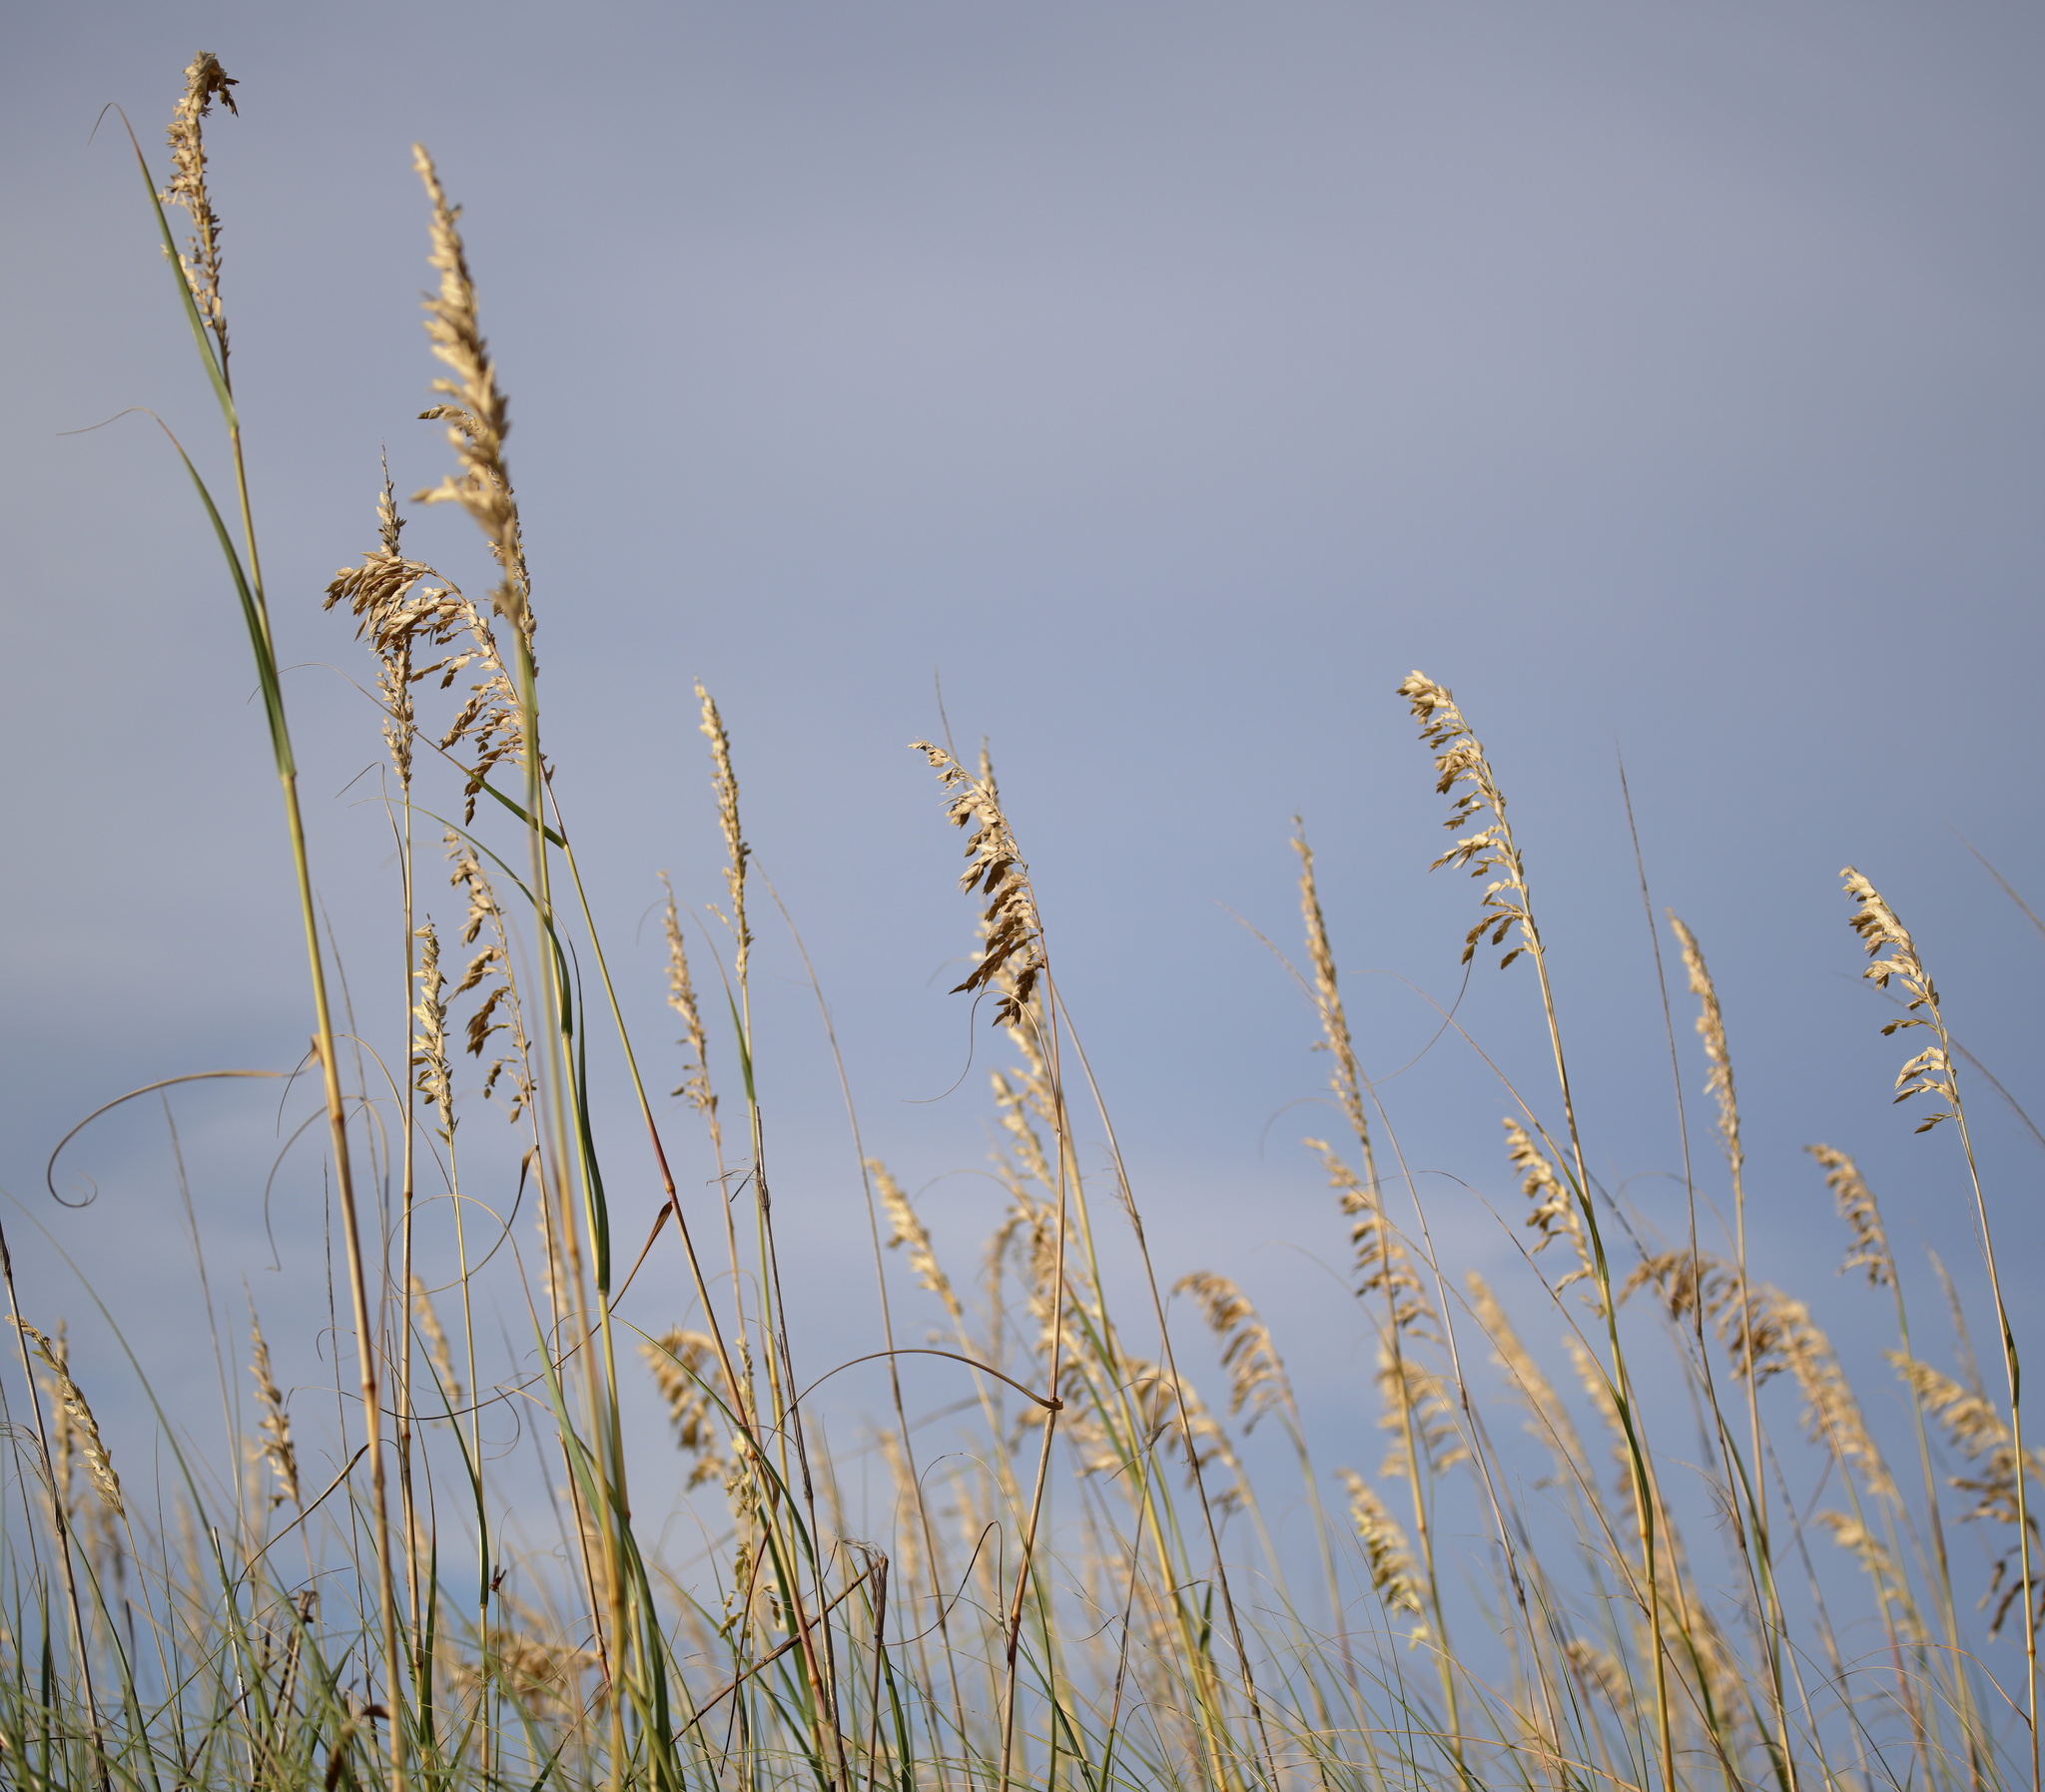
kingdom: Plantae
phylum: Tracheophyta
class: Liliopsida
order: Poales
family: Poaceae
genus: Uniola
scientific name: Uniola paniculata
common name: Seaside-oats
